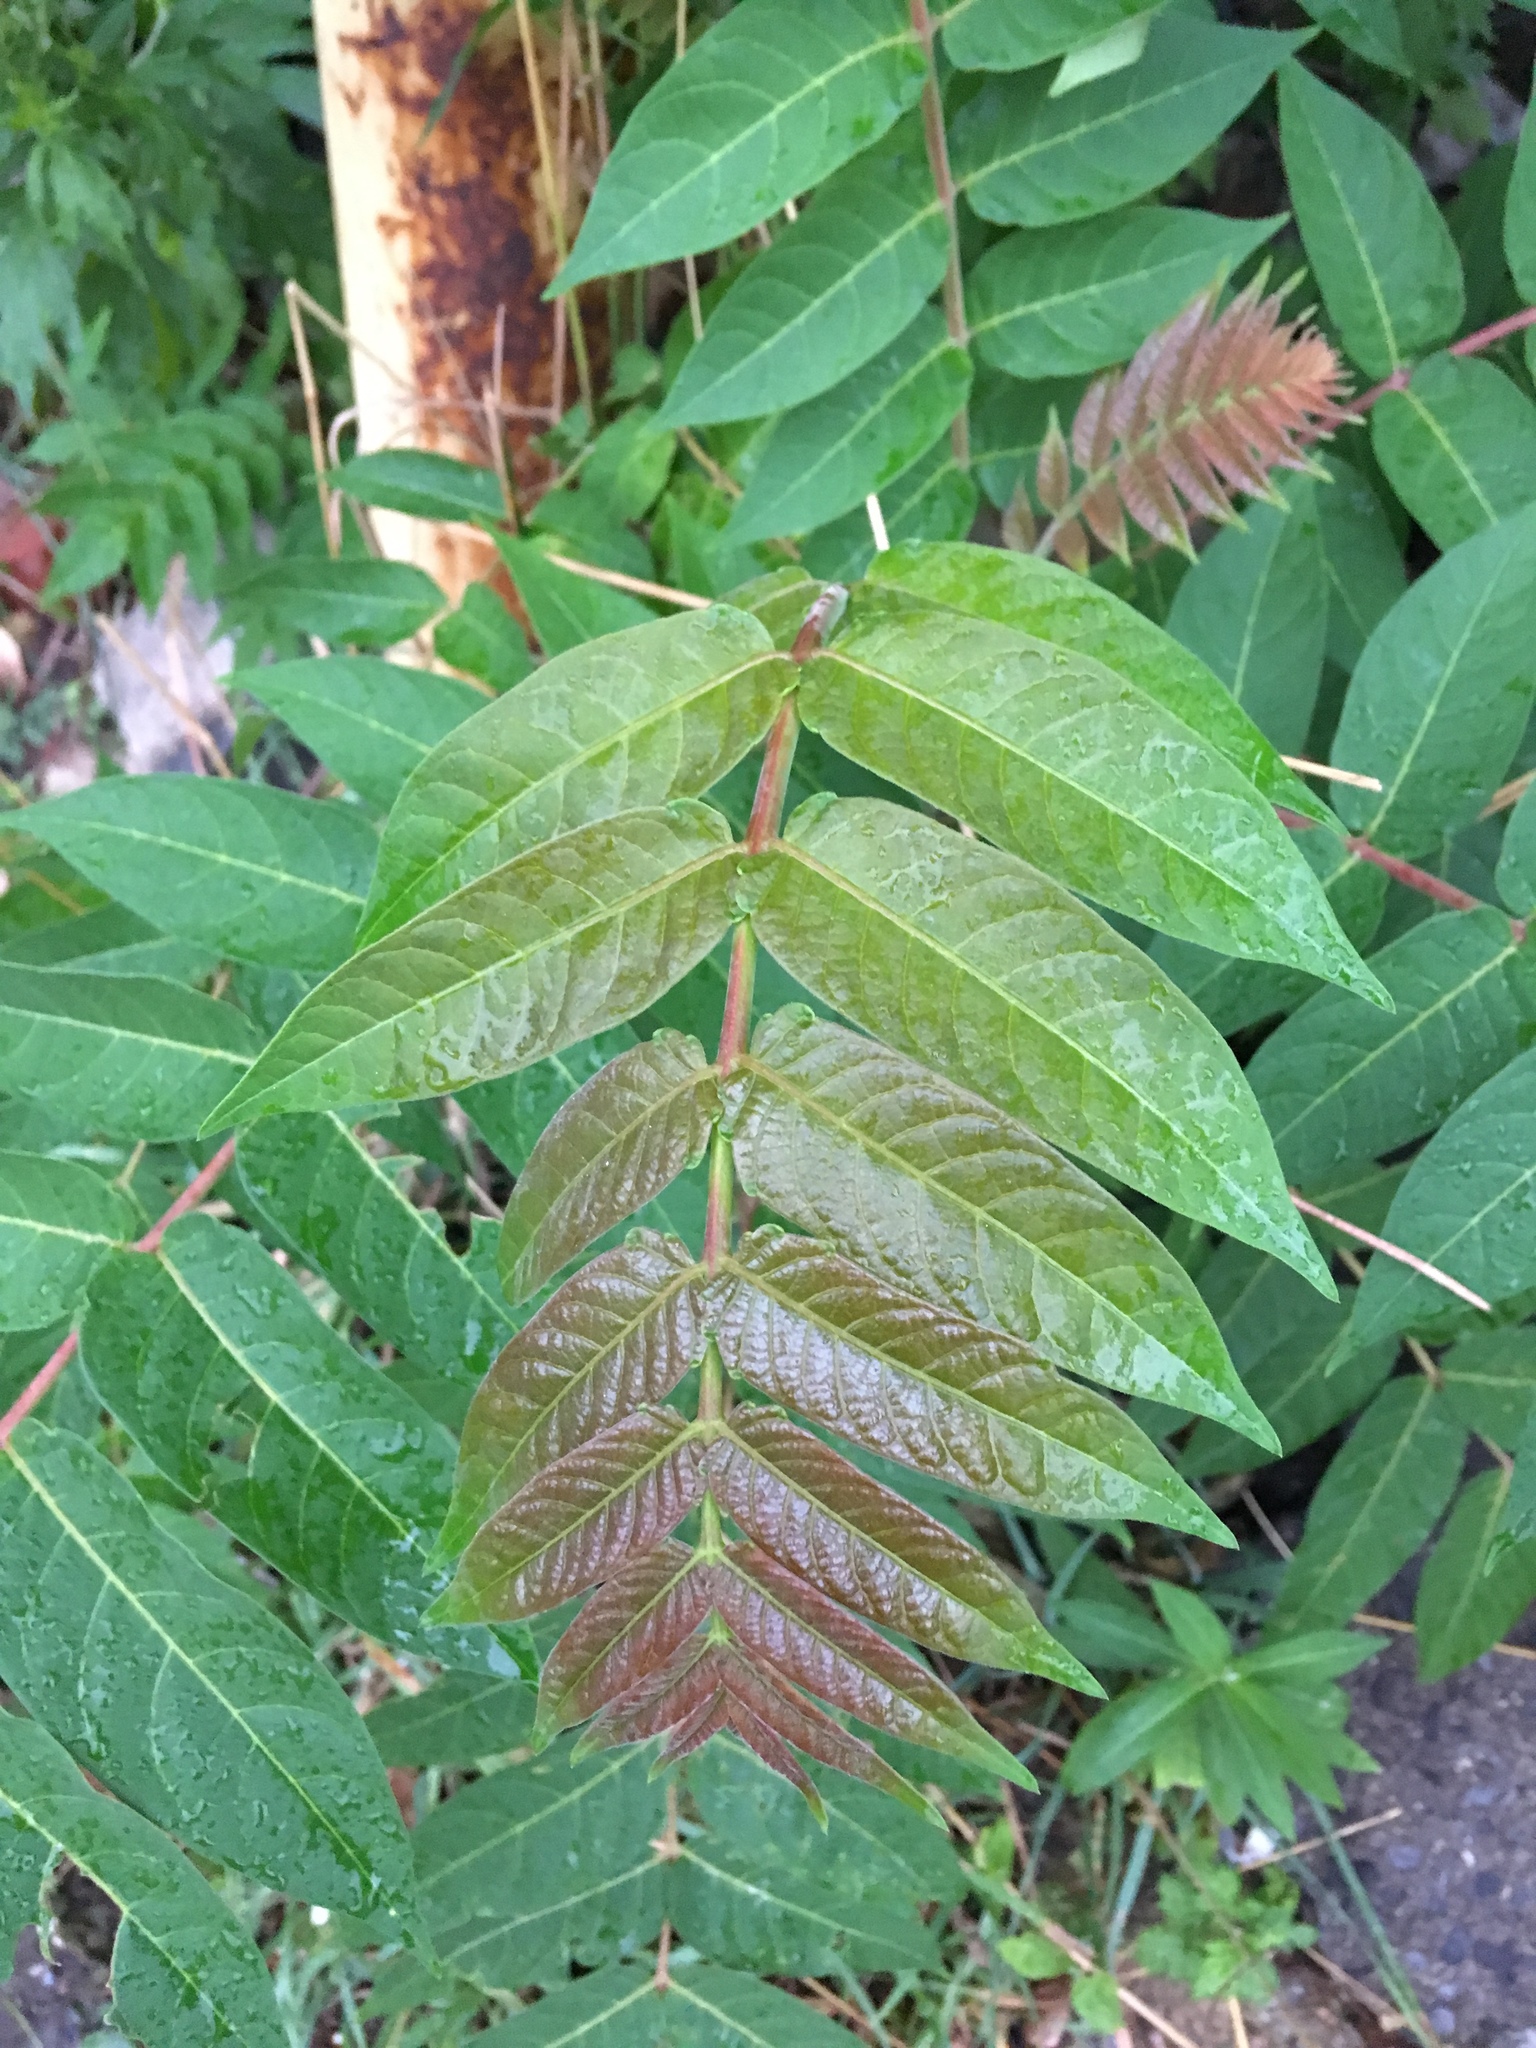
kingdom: Plantae
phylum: Tracheophyta
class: Magnoliopsida
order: Sapindales
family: Simaroubaceae
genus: Ailanthus
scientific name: Ailanthus altissima
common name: Tree-of-heaven
